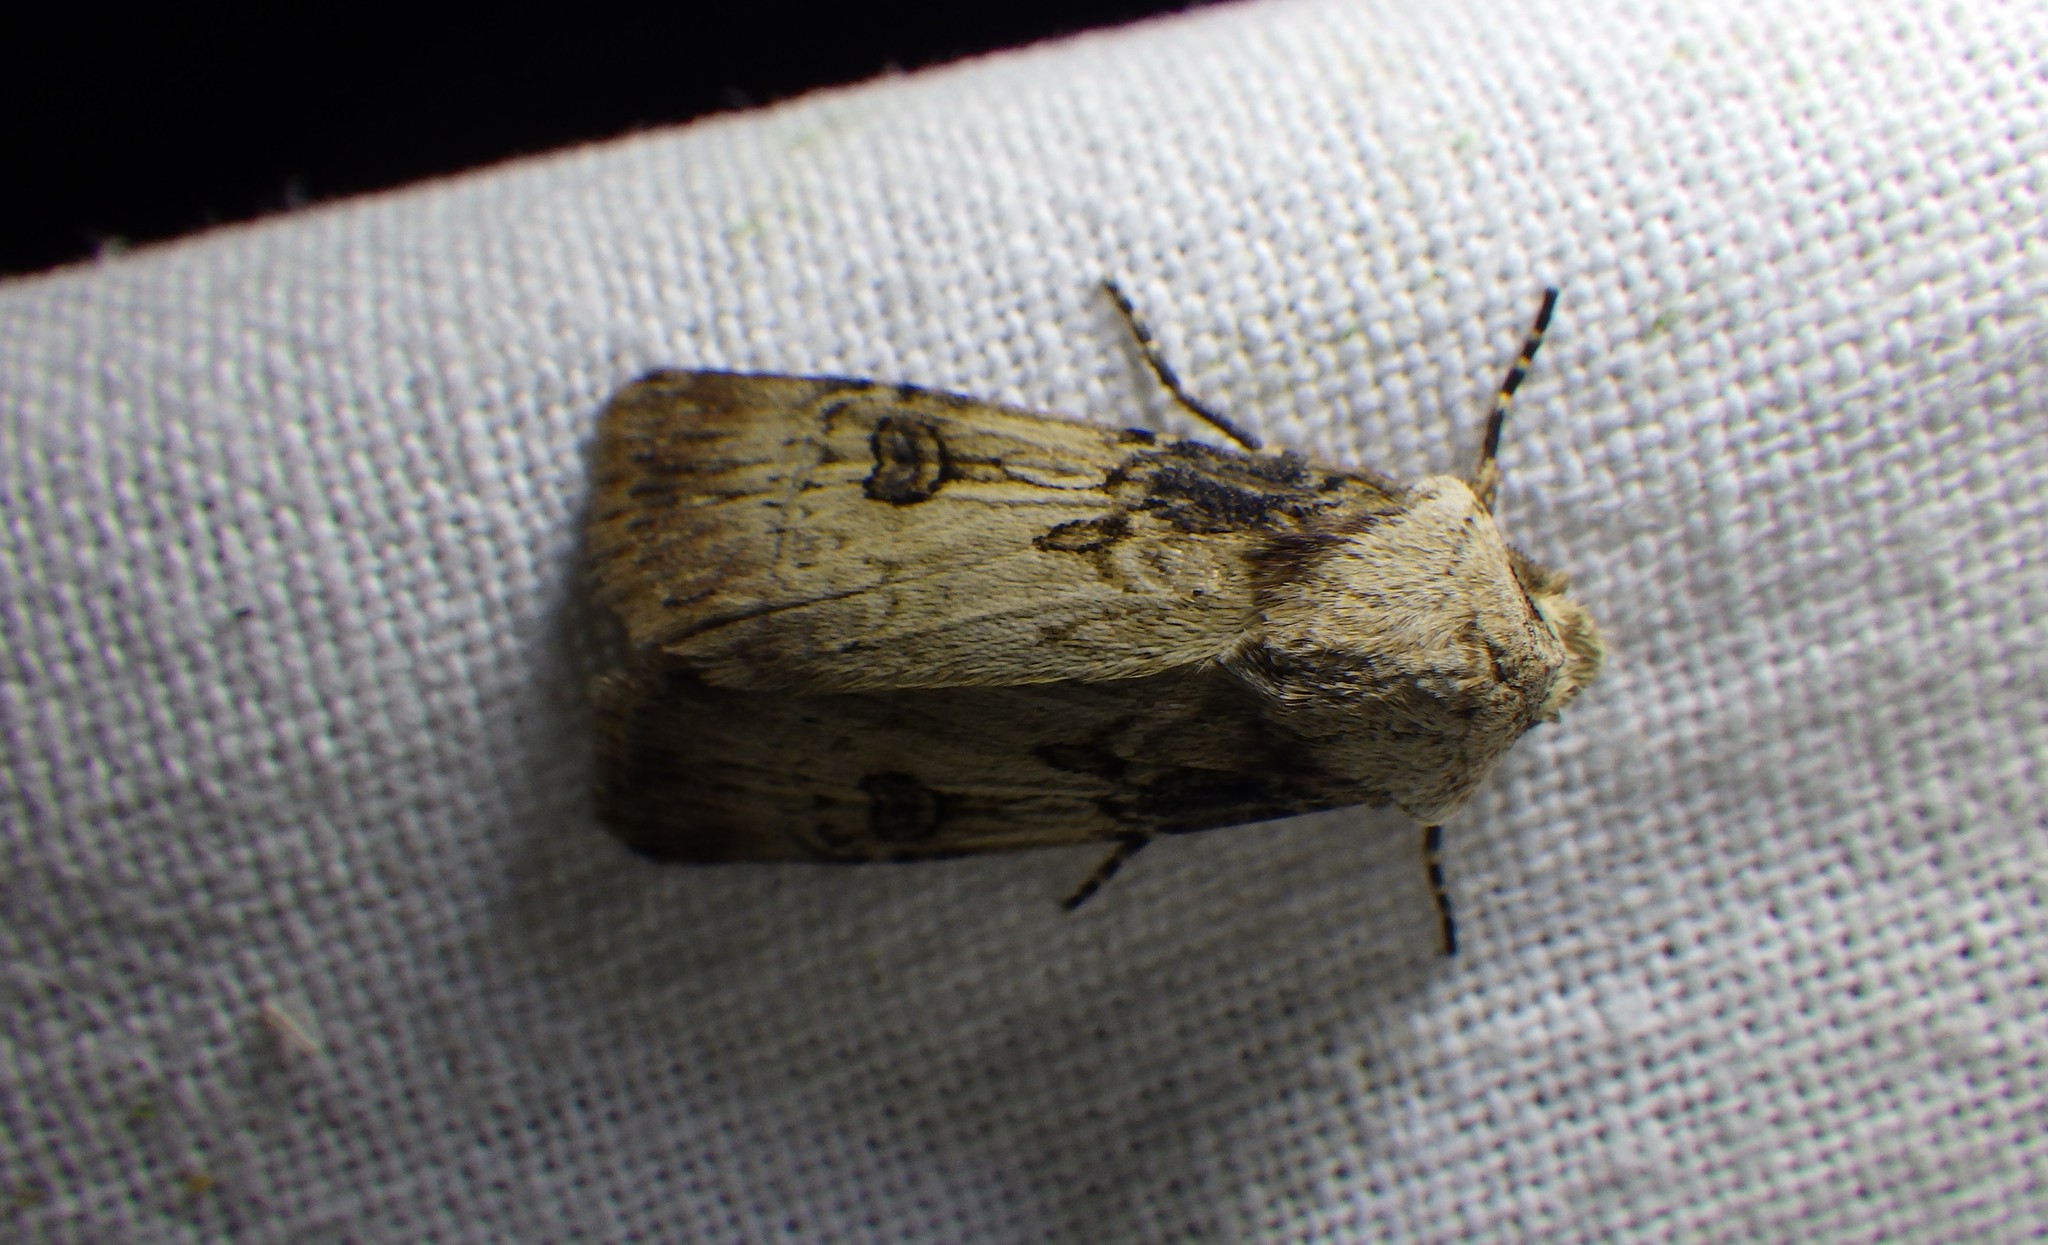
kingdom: Animalia
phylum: Arthropoda
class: Insecta
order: Lepidoptera
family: Noctuidae
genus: Agrotis
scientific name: Agrotis puta
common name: Shuttle-shaped dart
